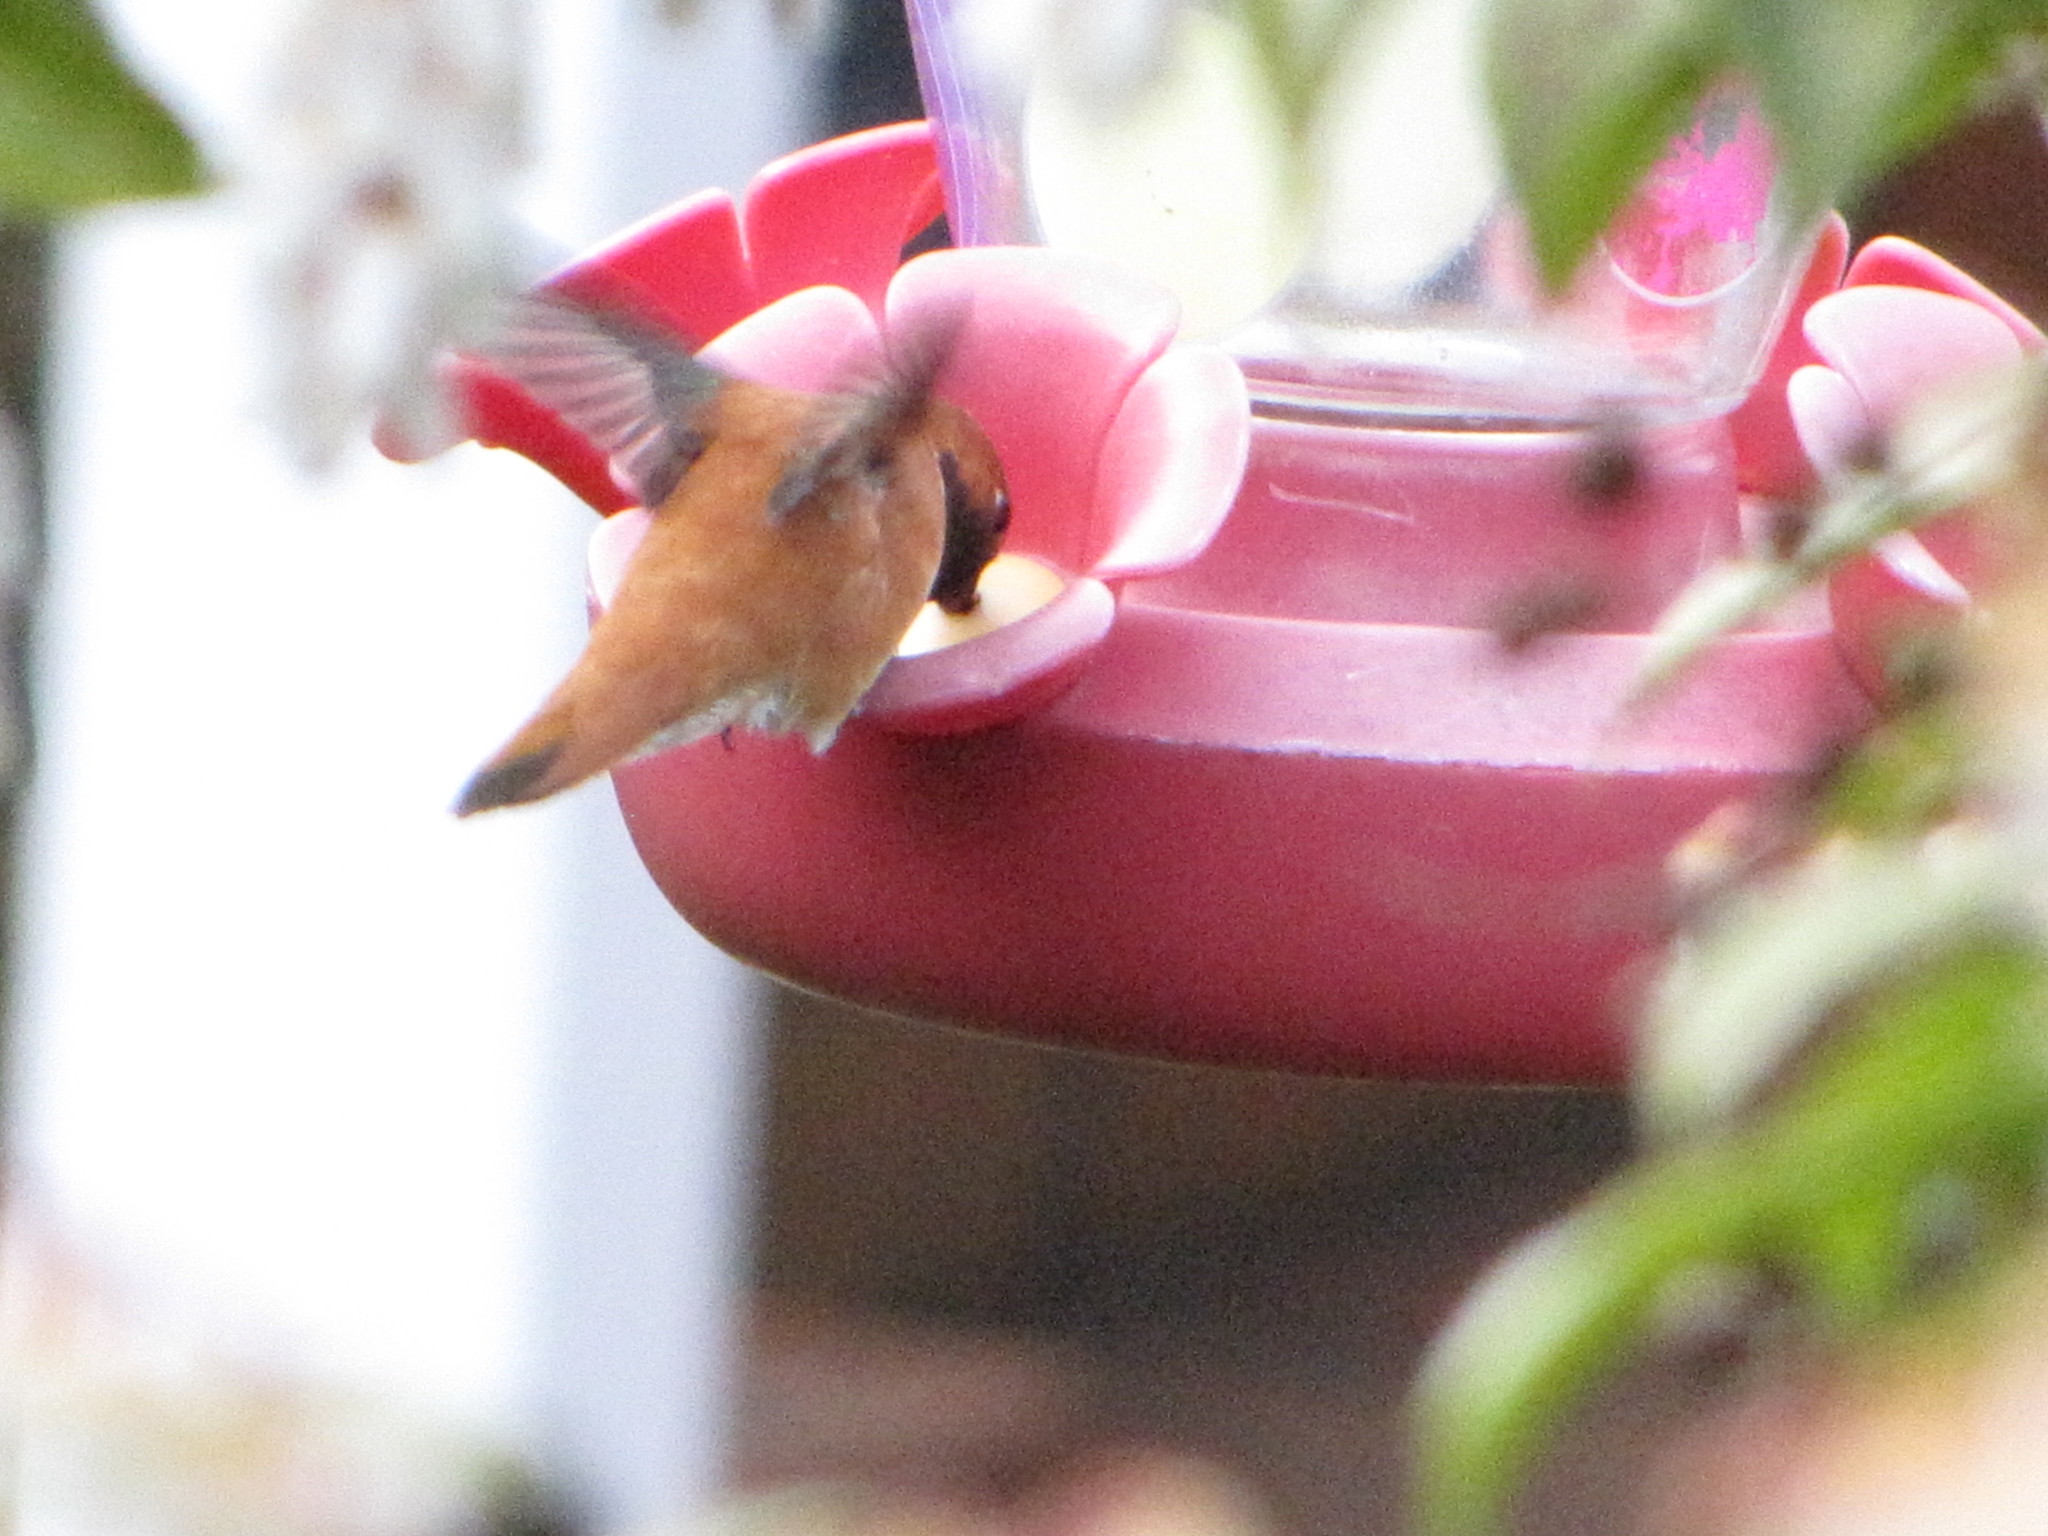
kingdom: Animalia
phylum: Chordata
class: Aves
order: Apodiformes
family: Trochilidae
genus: Selasphorus
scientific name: Selasphorus rufus
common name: Rufous hummingbird
